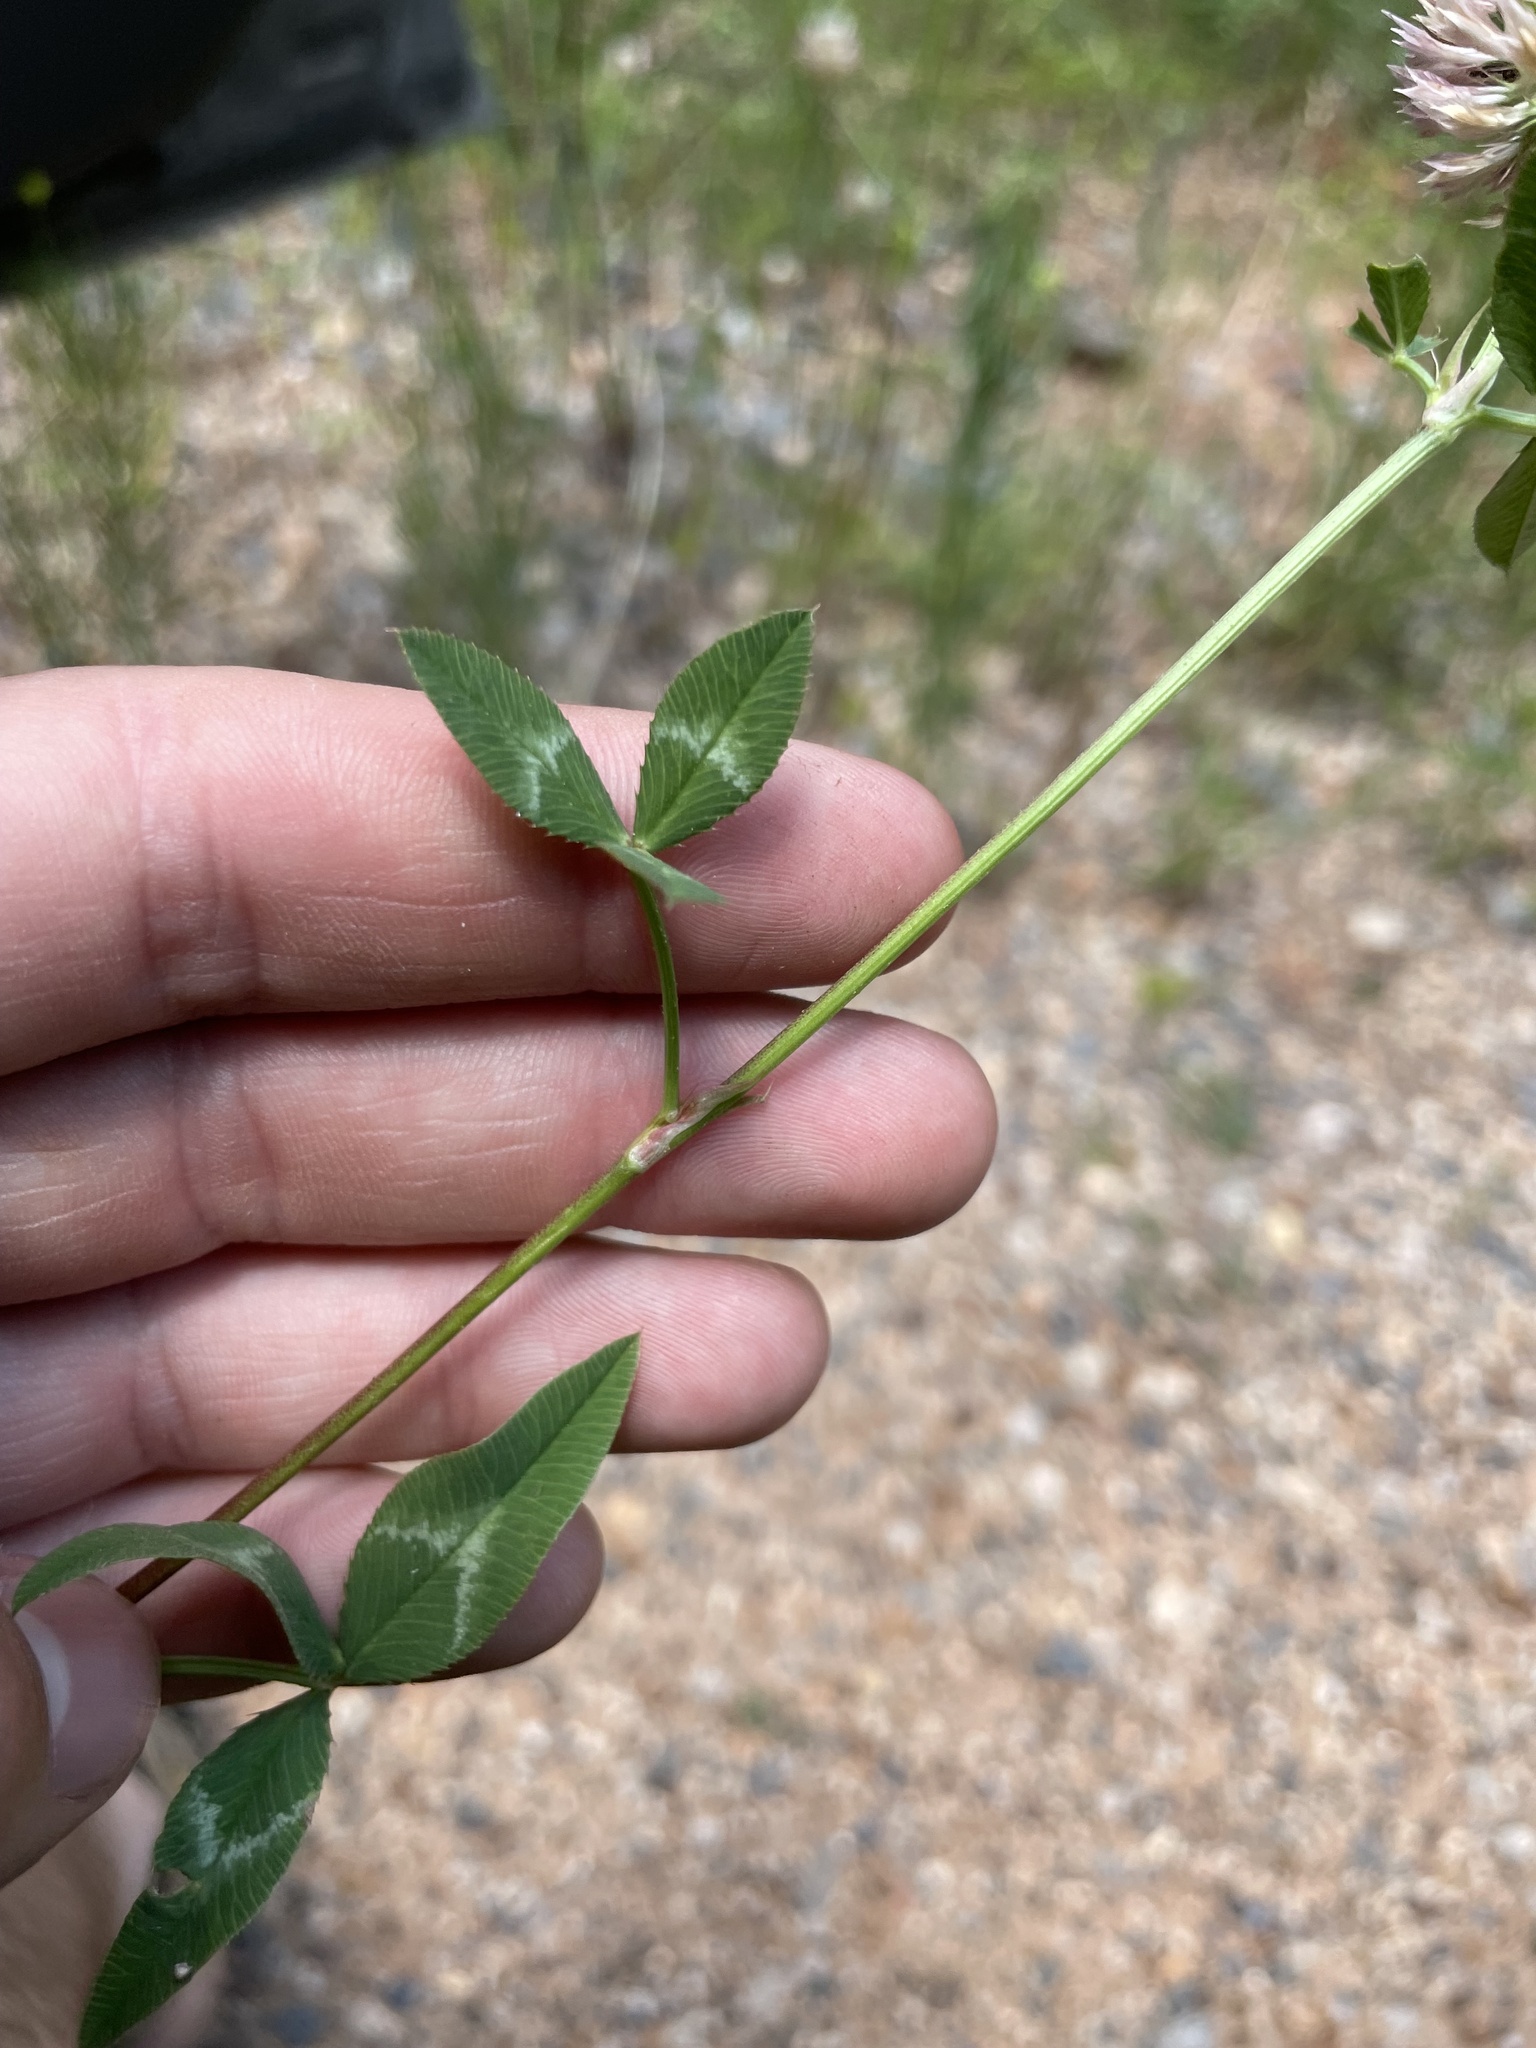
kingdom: Plantae
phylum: Tracheophyta
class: Magnoliopsida
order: Fabales
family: Fabaceae
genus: Trifolium
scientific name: Trifolium vesiculosum
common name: Arrowleaf clover
